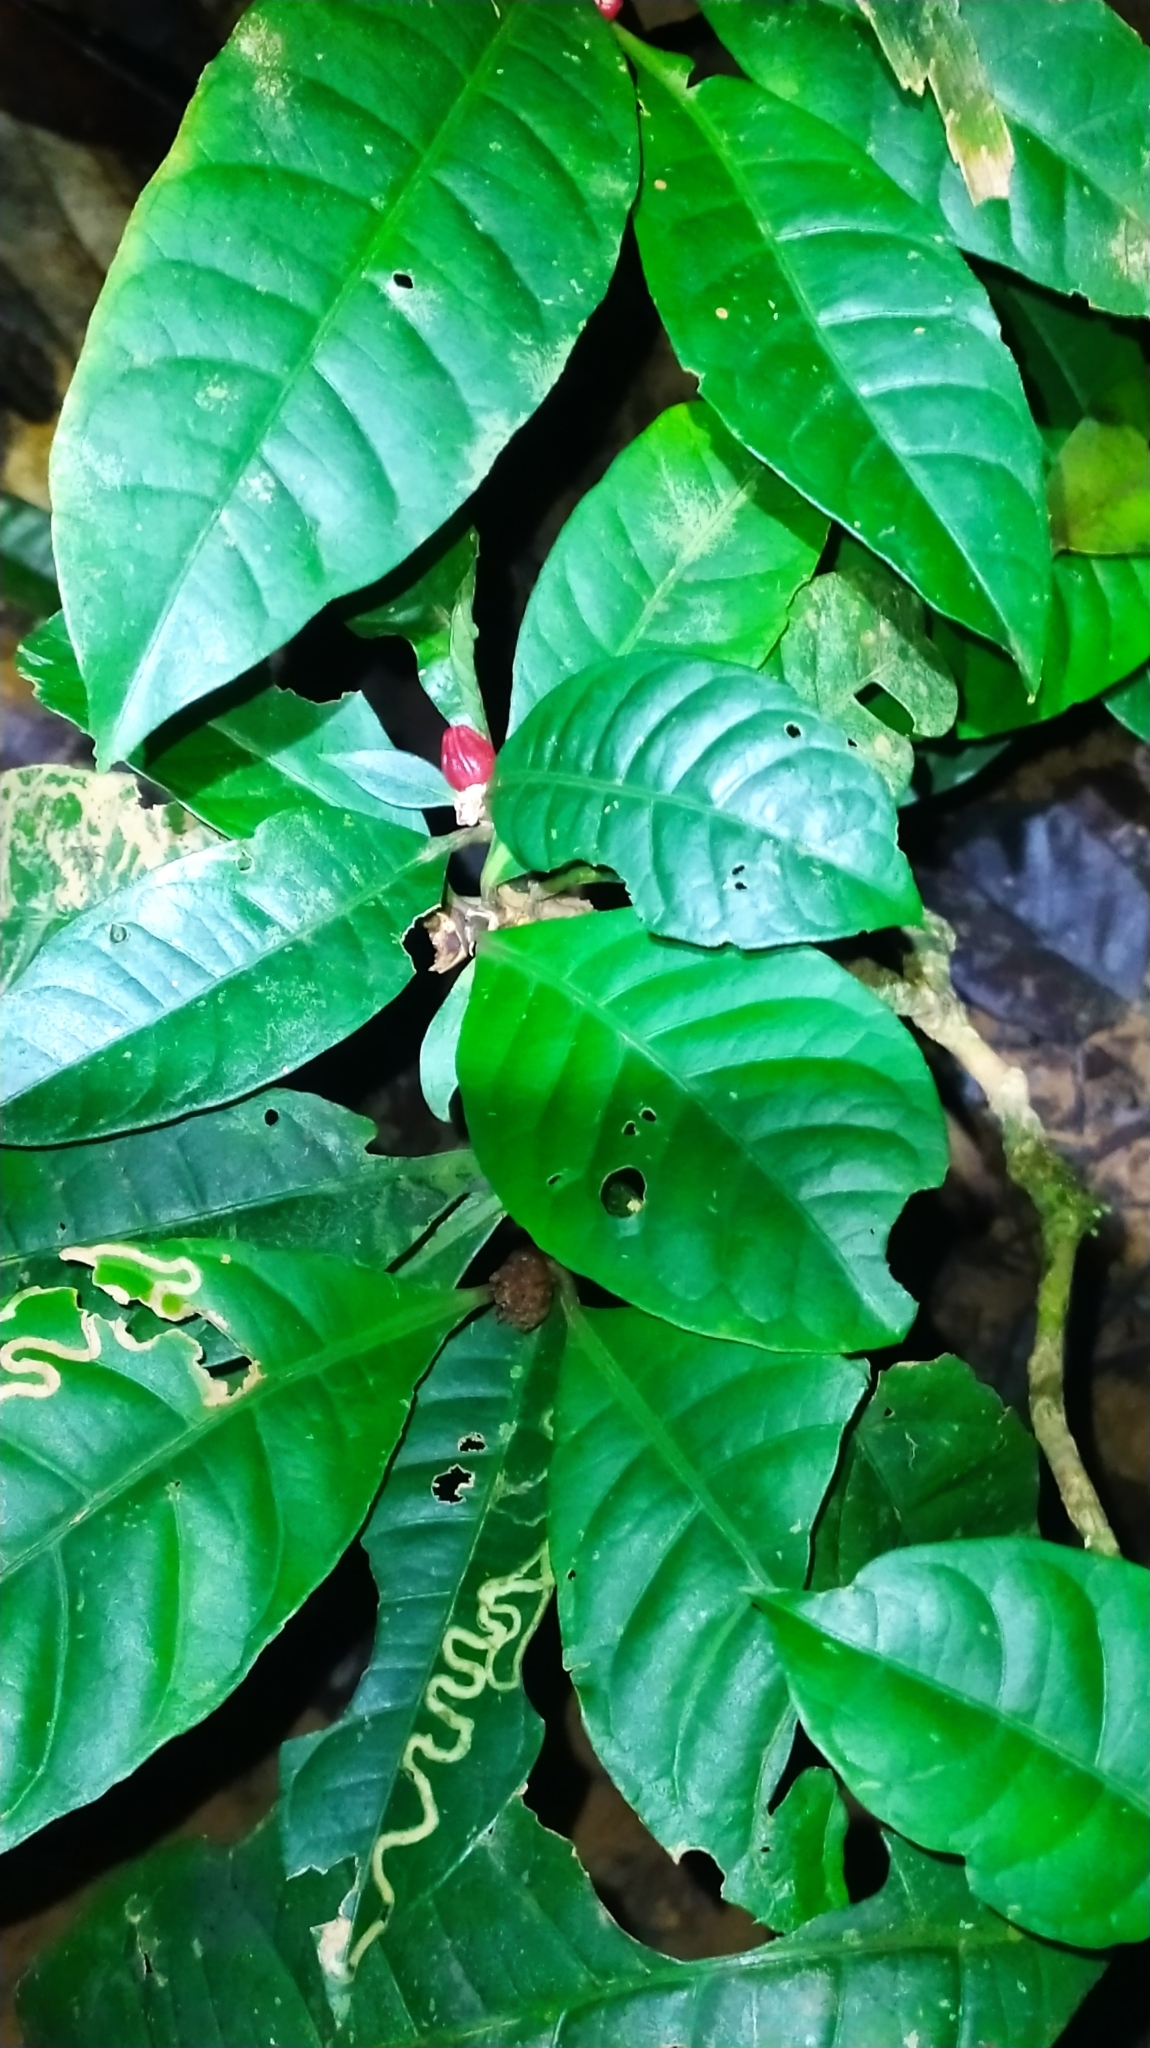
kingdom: Plantae
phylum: Tracheophyta
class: Magnoliopsida
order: Gentianales
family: Rubiaceae
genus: Eumachia
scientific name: Eumachia kappleri
